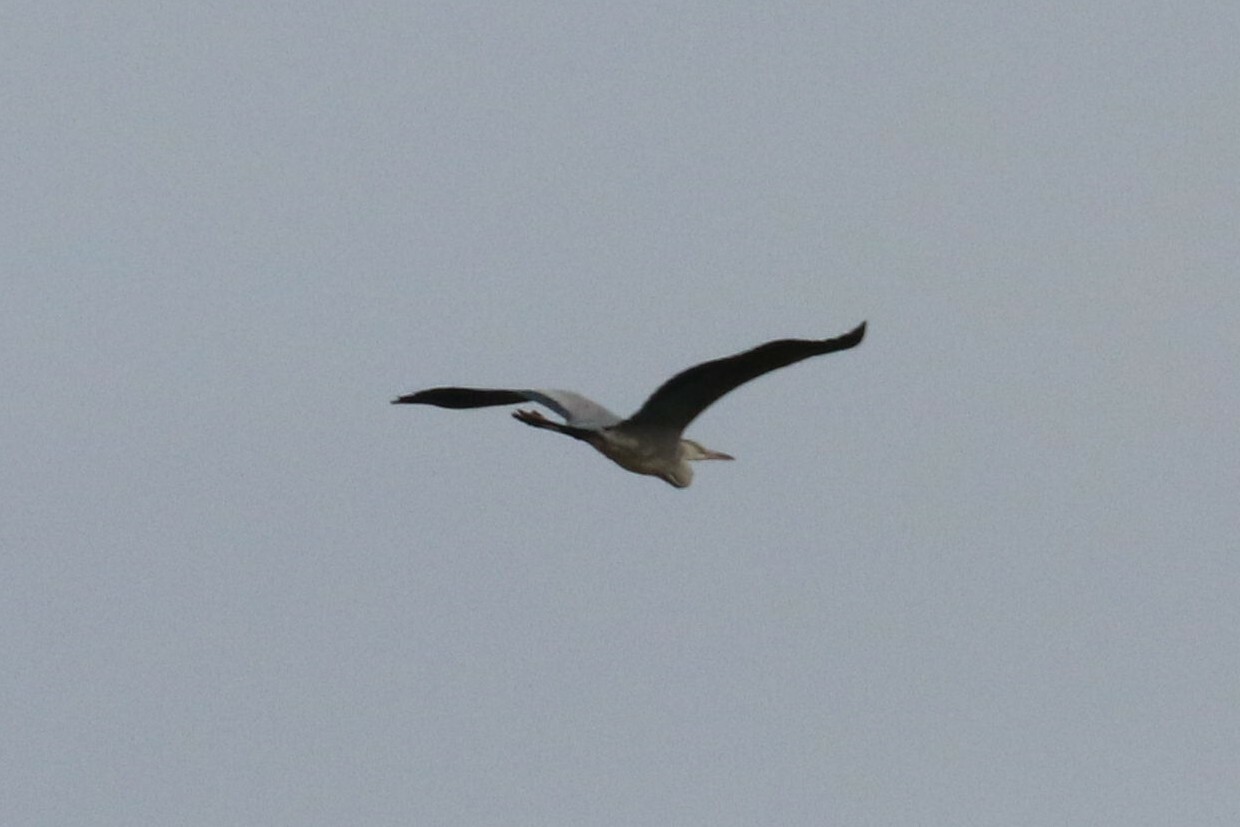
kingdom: Animalia
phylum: Chordata
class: Aves
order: Pelecaniformes
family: Ardeidae
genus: Ardea
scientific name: Ardea cinerea
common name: Grey heron
